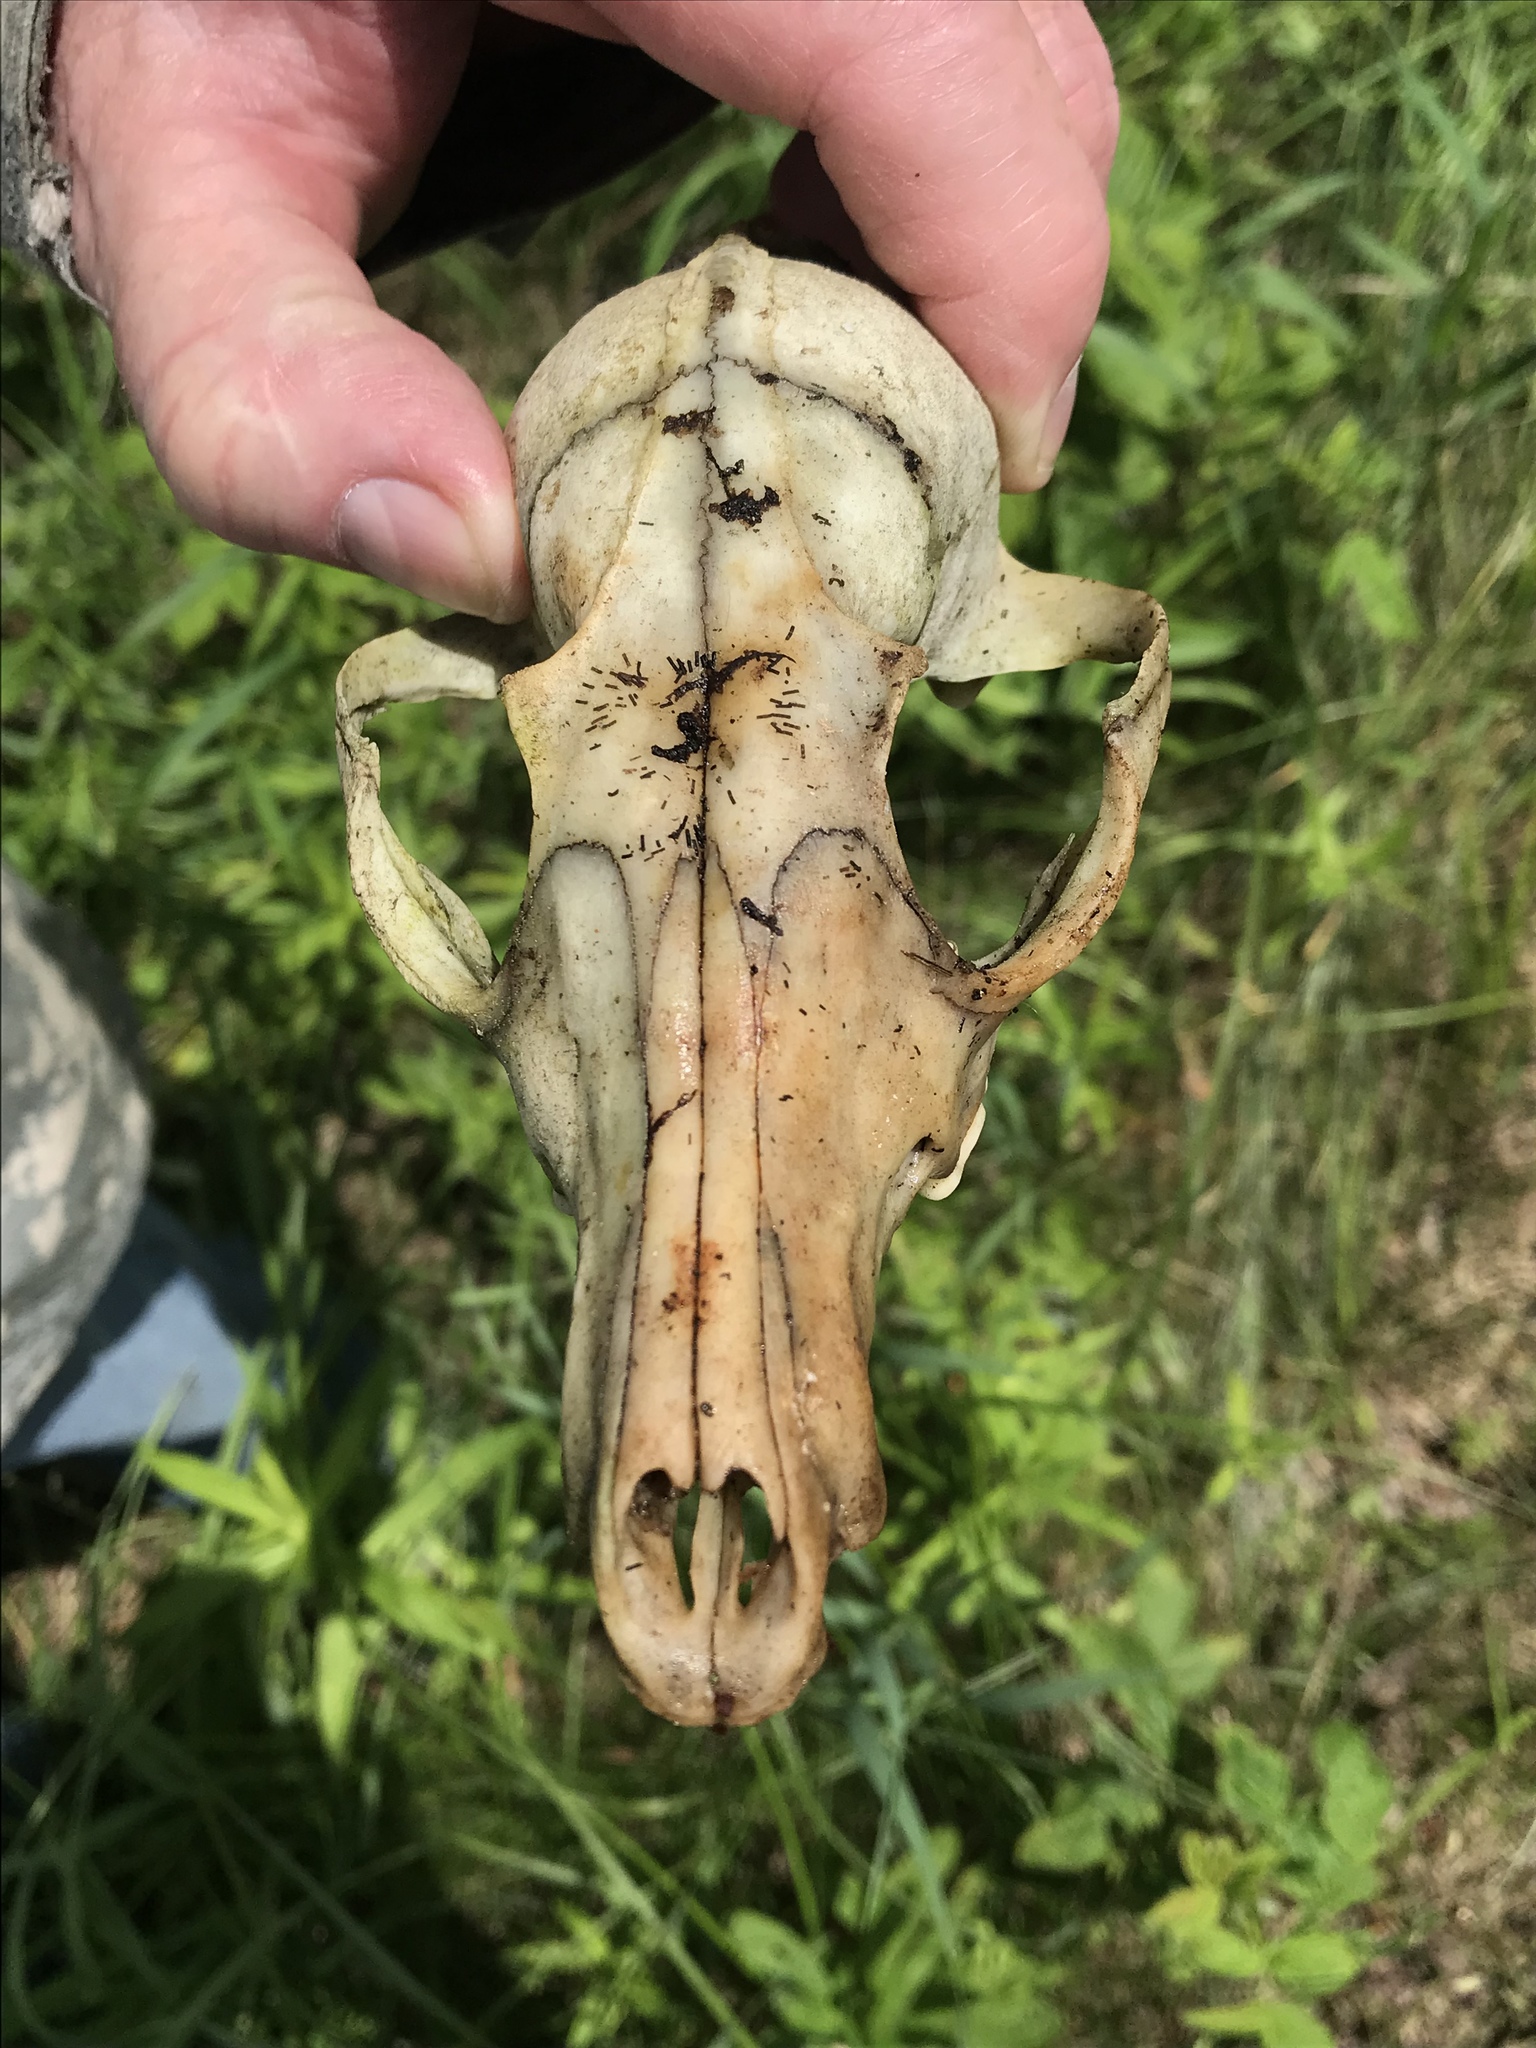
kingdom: Animalia
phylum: Chordata
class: Mammalia
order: Carnivora
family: Canidae
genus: Vulpes
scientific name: Vulpes vulpes
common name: Red fox
